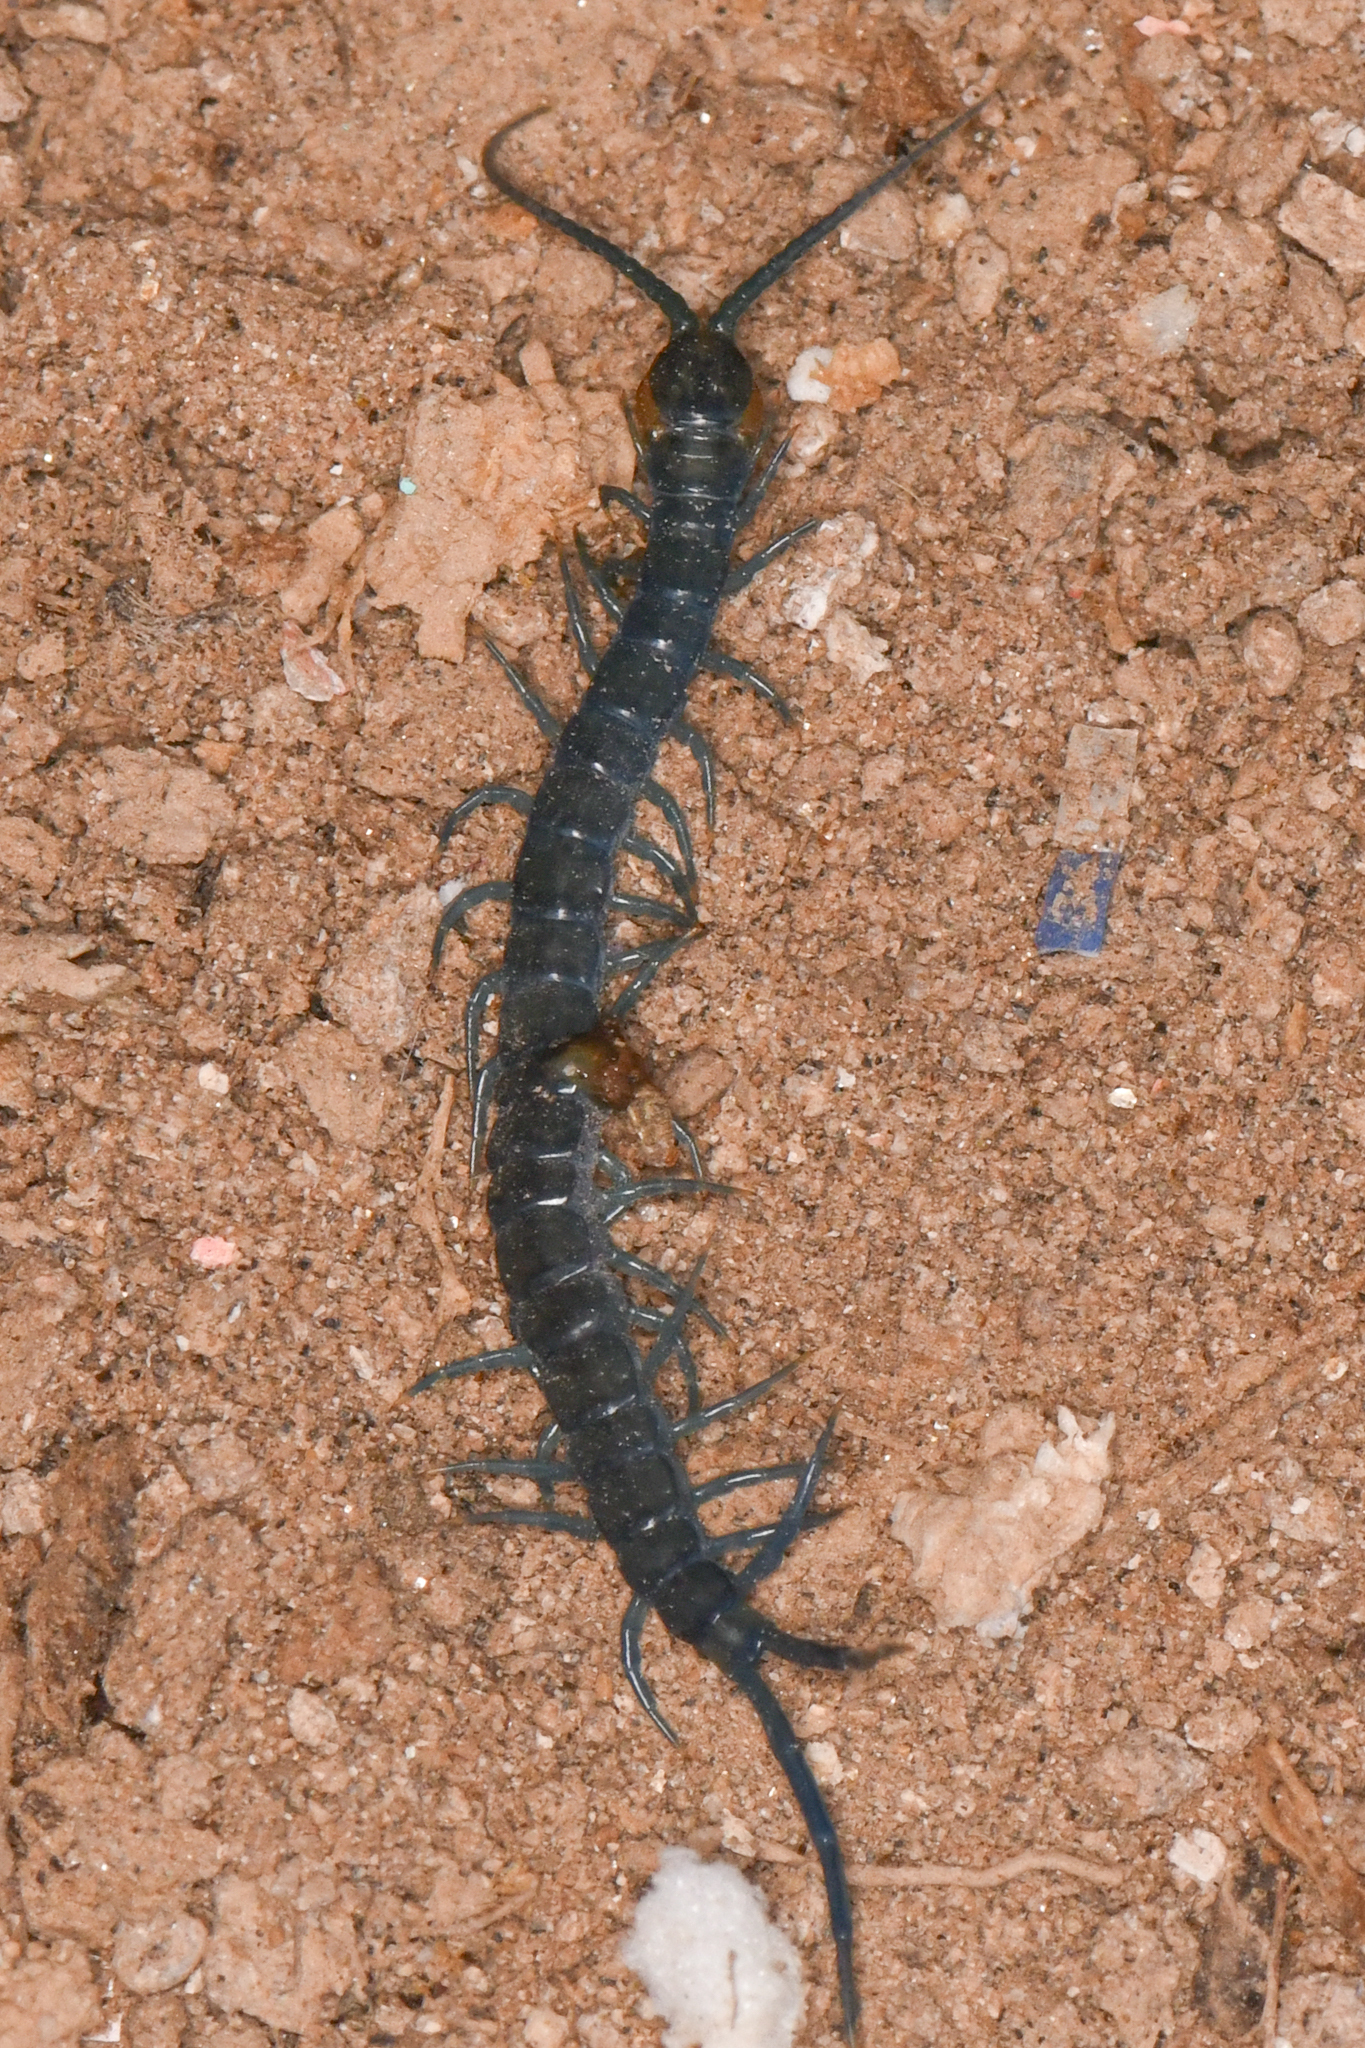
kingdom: Animalia
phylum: Arthropoda
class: Chilopoda
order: Scolopendromorpha
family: Scolopendridae
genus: Scolopendra
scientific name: Scolopendra aztecorum
